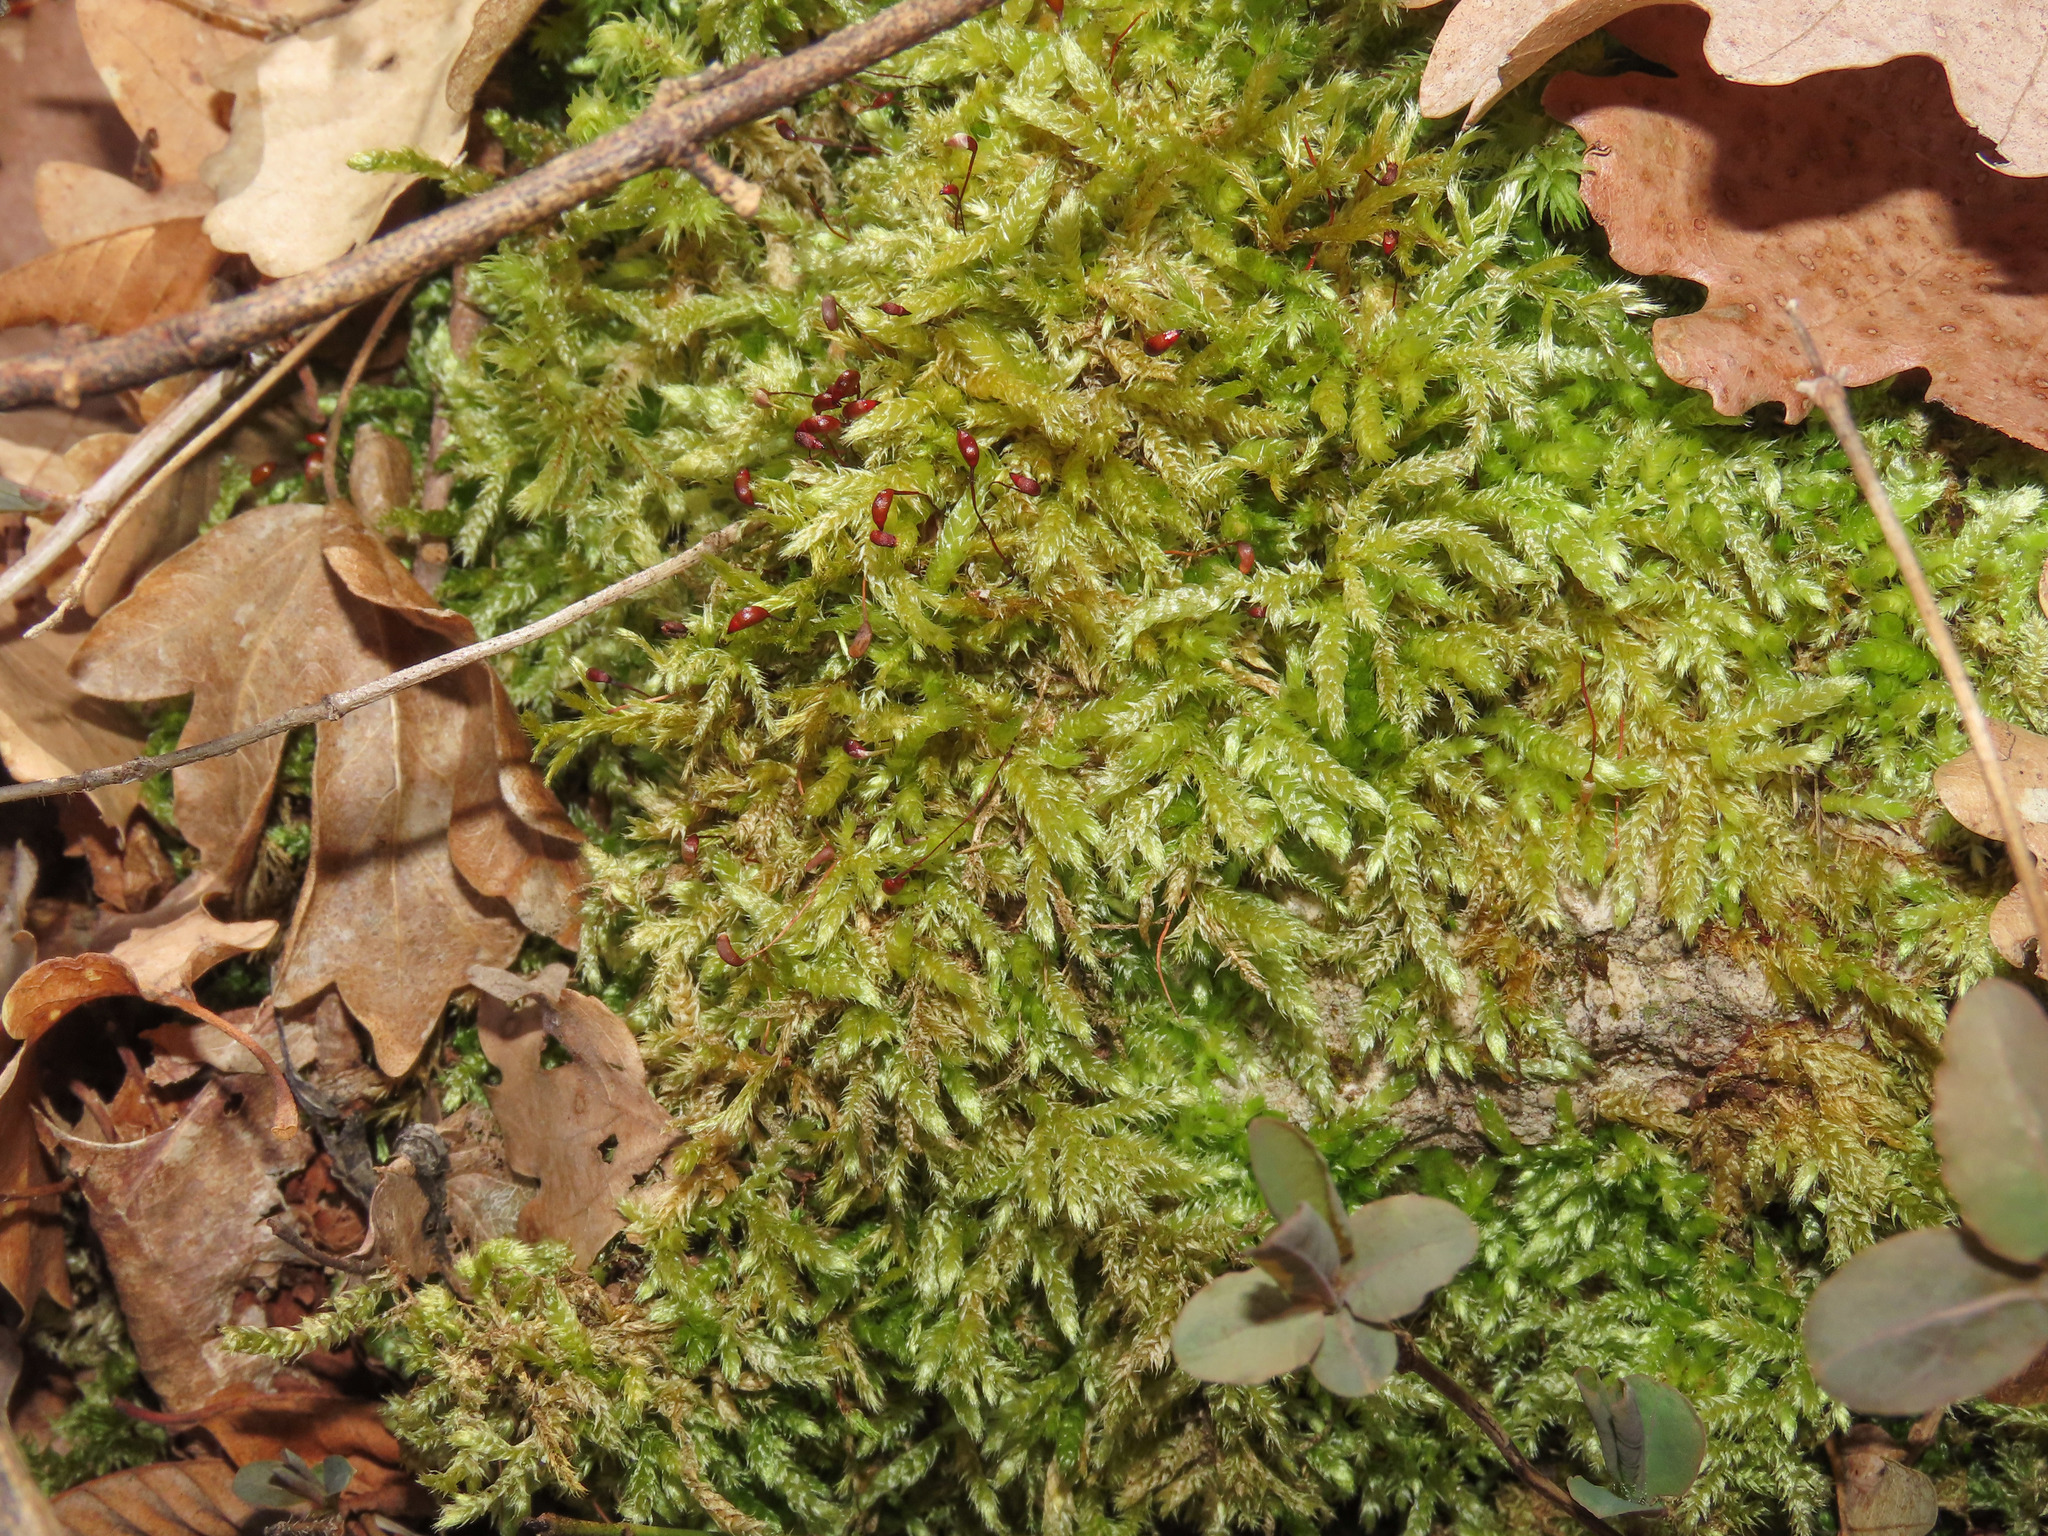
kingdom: Plantae
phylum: Bryophyta
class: Bryopsida
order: Hypnales
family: Brachytheciaceae
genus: Brachythecium
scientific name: Brachythecium rutabulum
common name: Rough-stalked feather-moss
